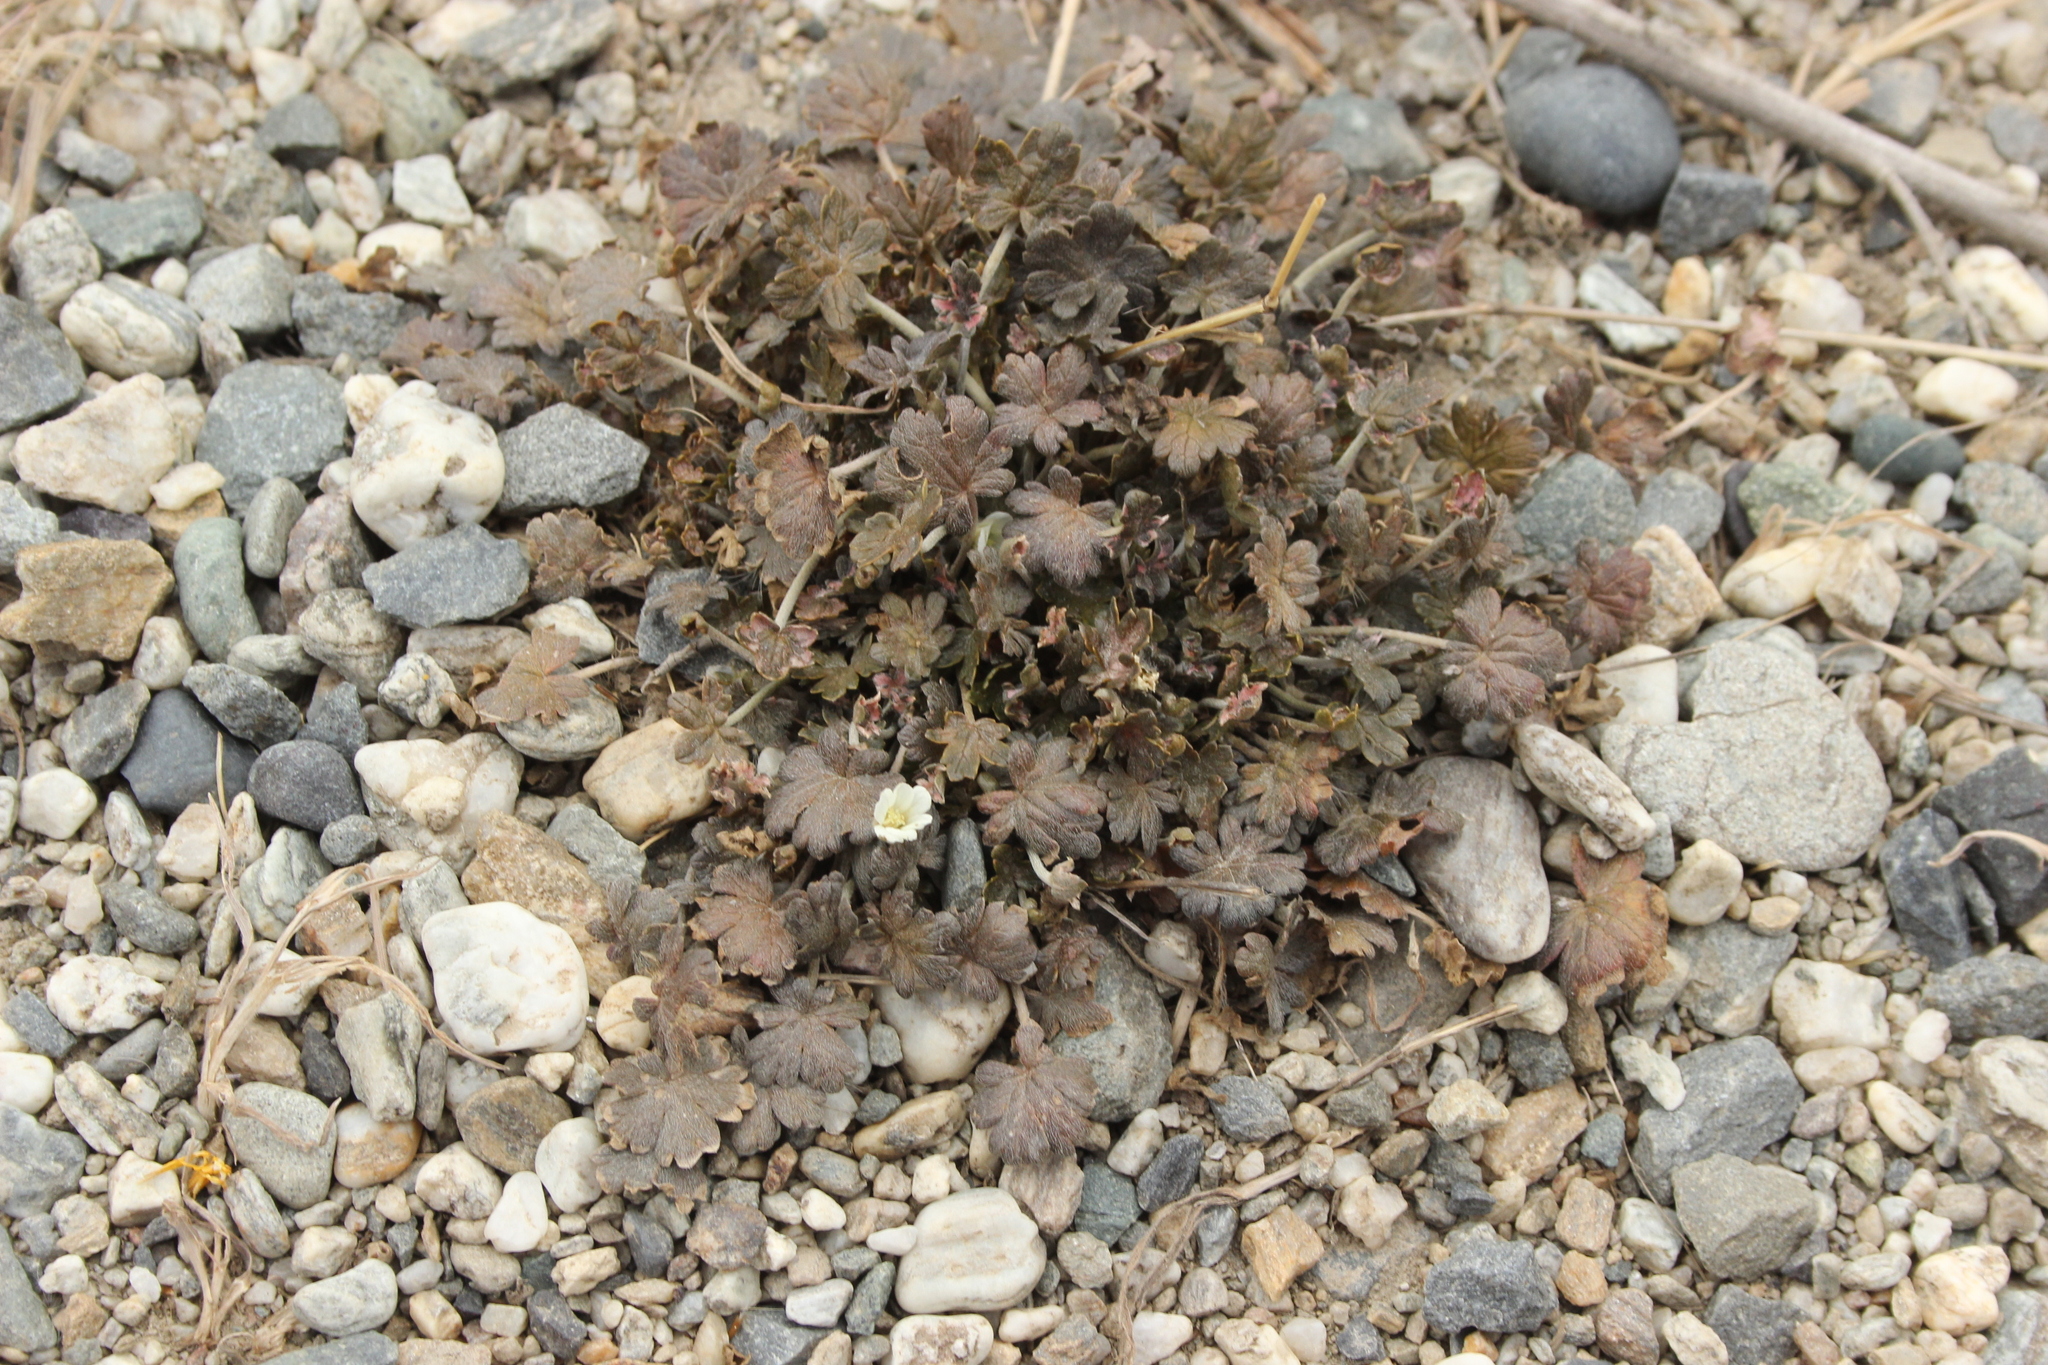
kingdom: Plantae
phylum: Tracheophyta
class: Magnoliopsida
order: Geraniales
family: Geraniaceae
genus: Geranium
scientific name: Geranium brevicaule
